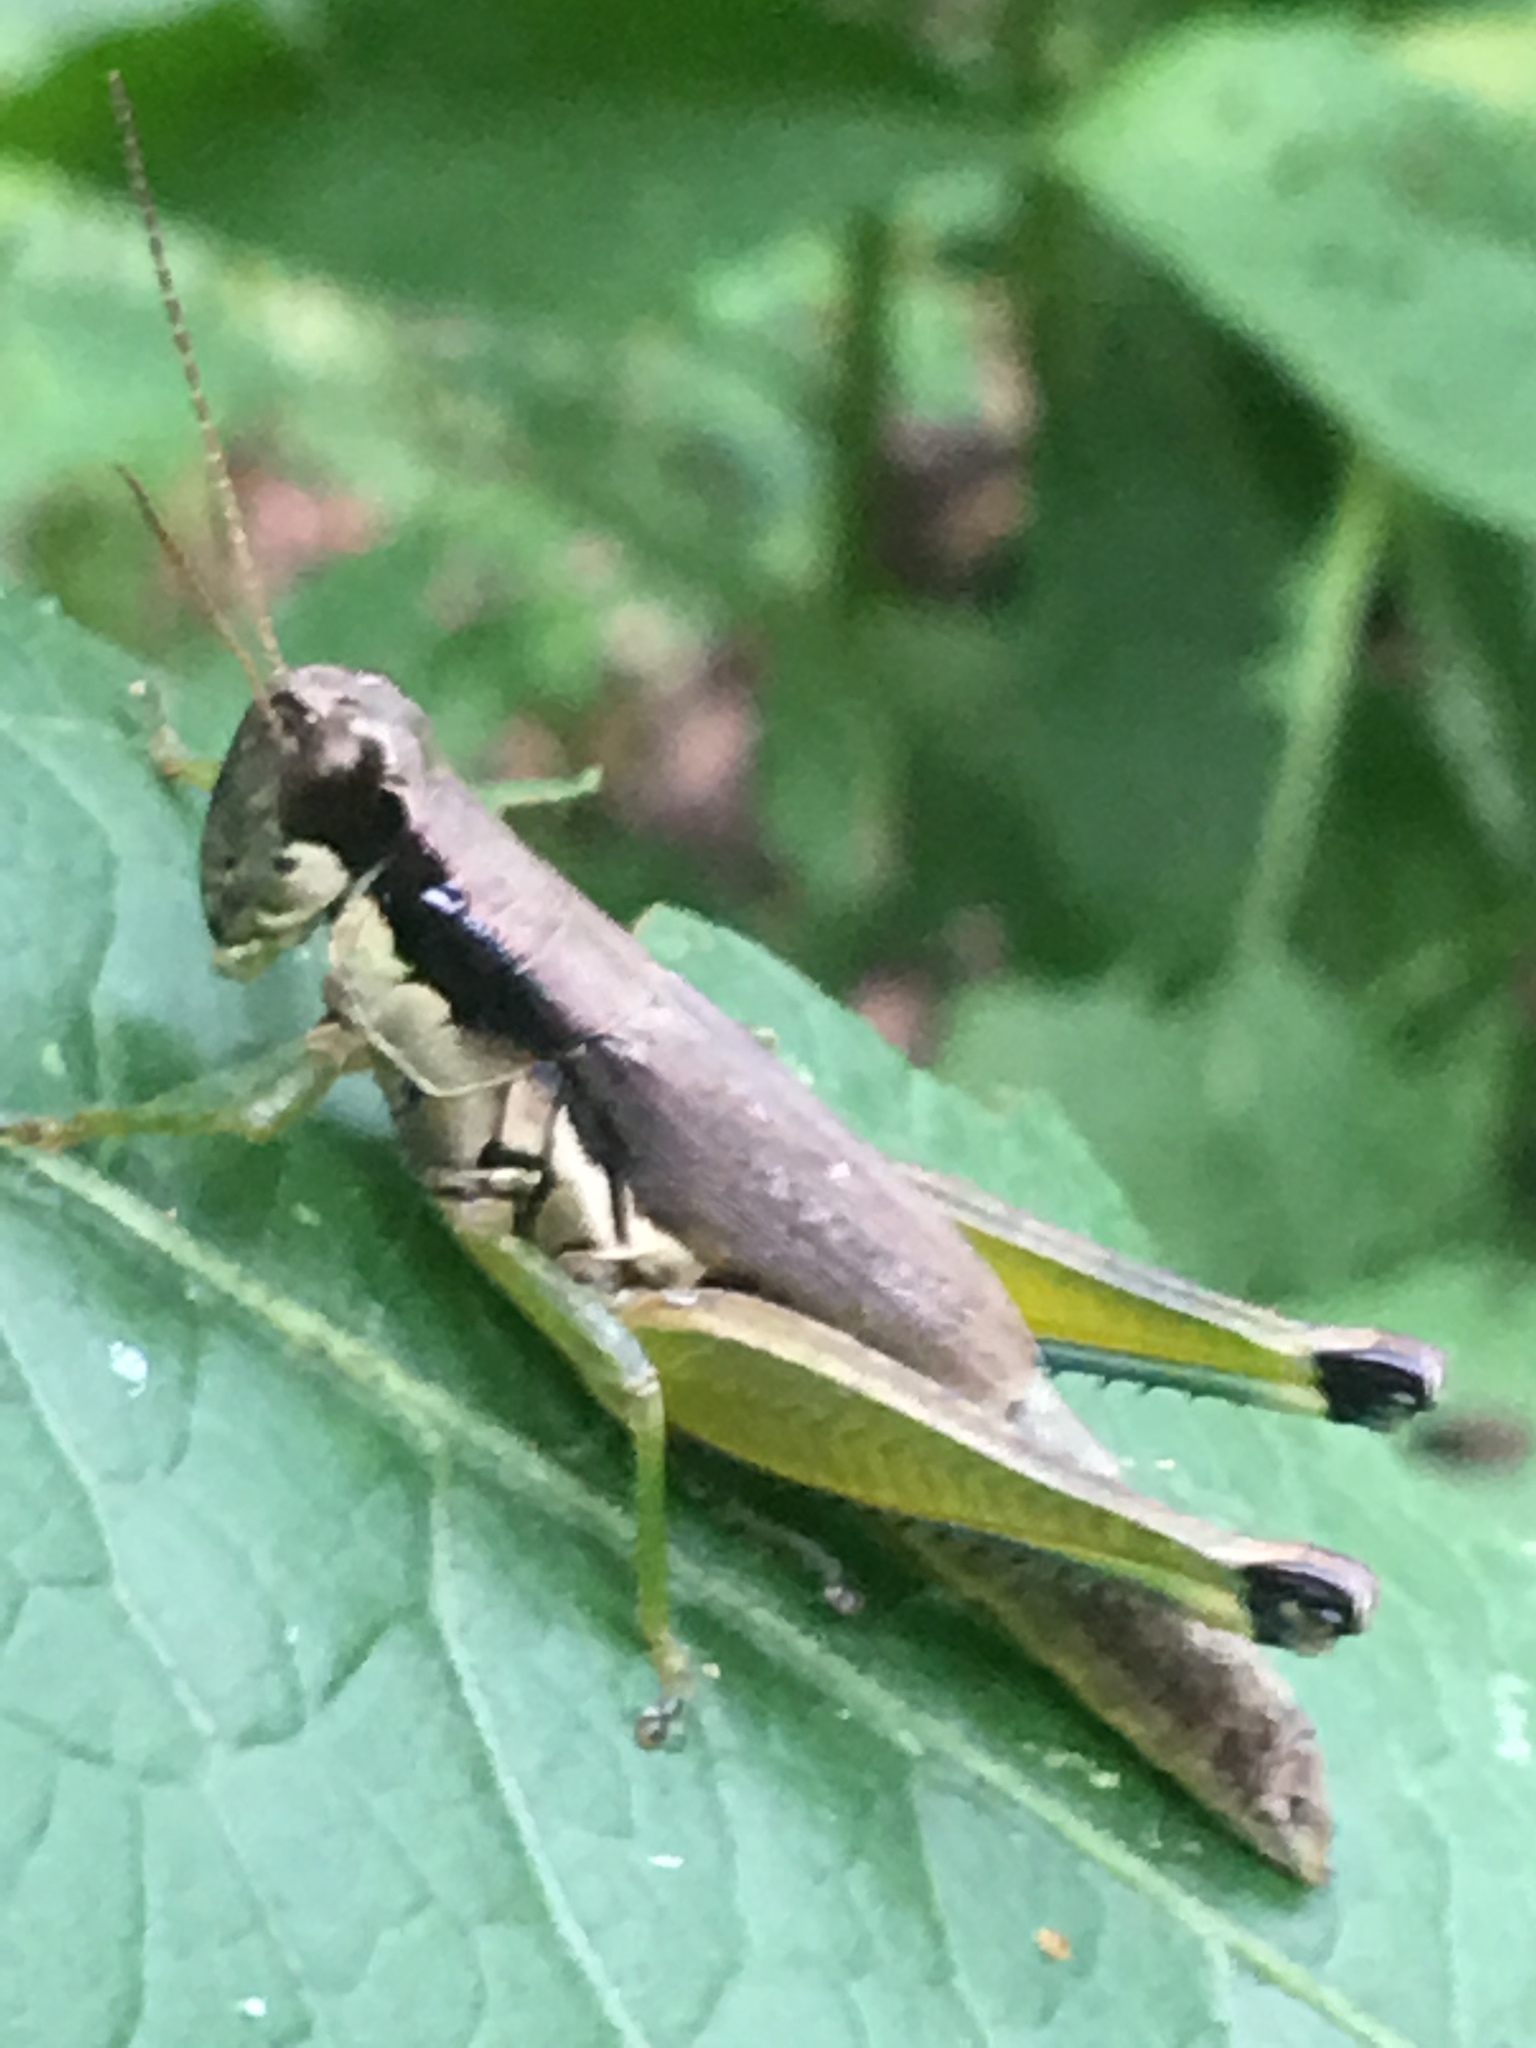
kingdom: Animalia
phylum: Arthropoda
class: Insecta
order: Orthoptera
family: Acrididae
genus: Paroxya
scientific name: Paroxya clavuligera
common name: Olive-green swamp grasshopper
